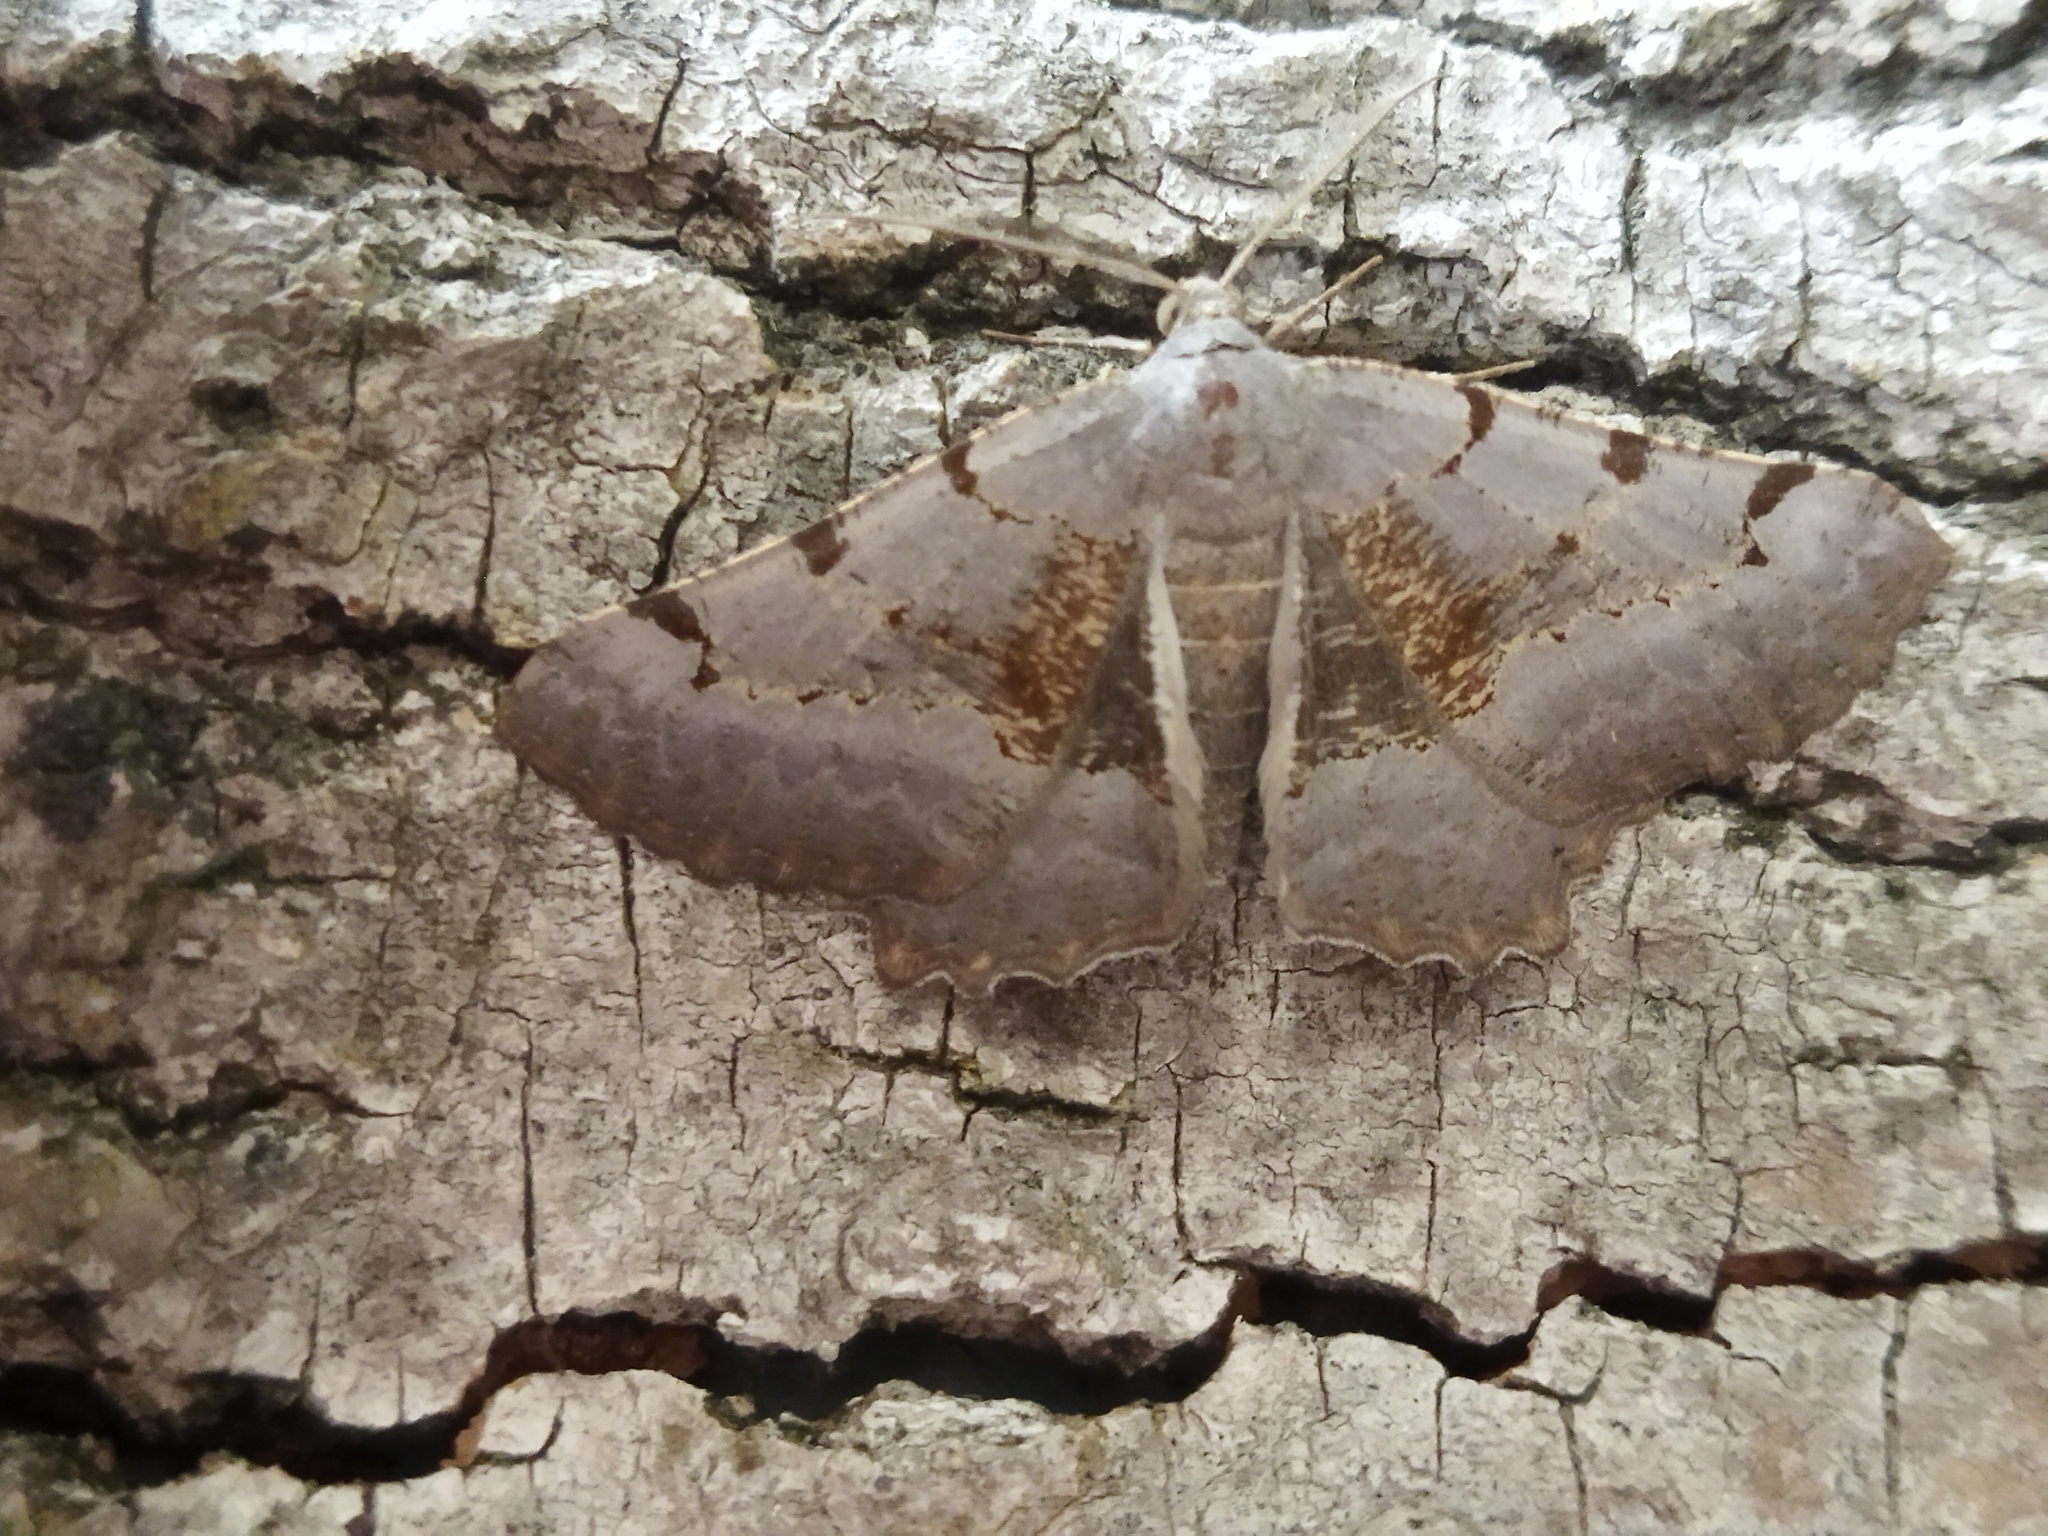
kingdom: Animalia
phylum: Arthropoda
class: Insecta
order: Lepidoptera
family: Geometridae
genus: Neognopharmia
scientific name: Neognopharmia stevenaria
